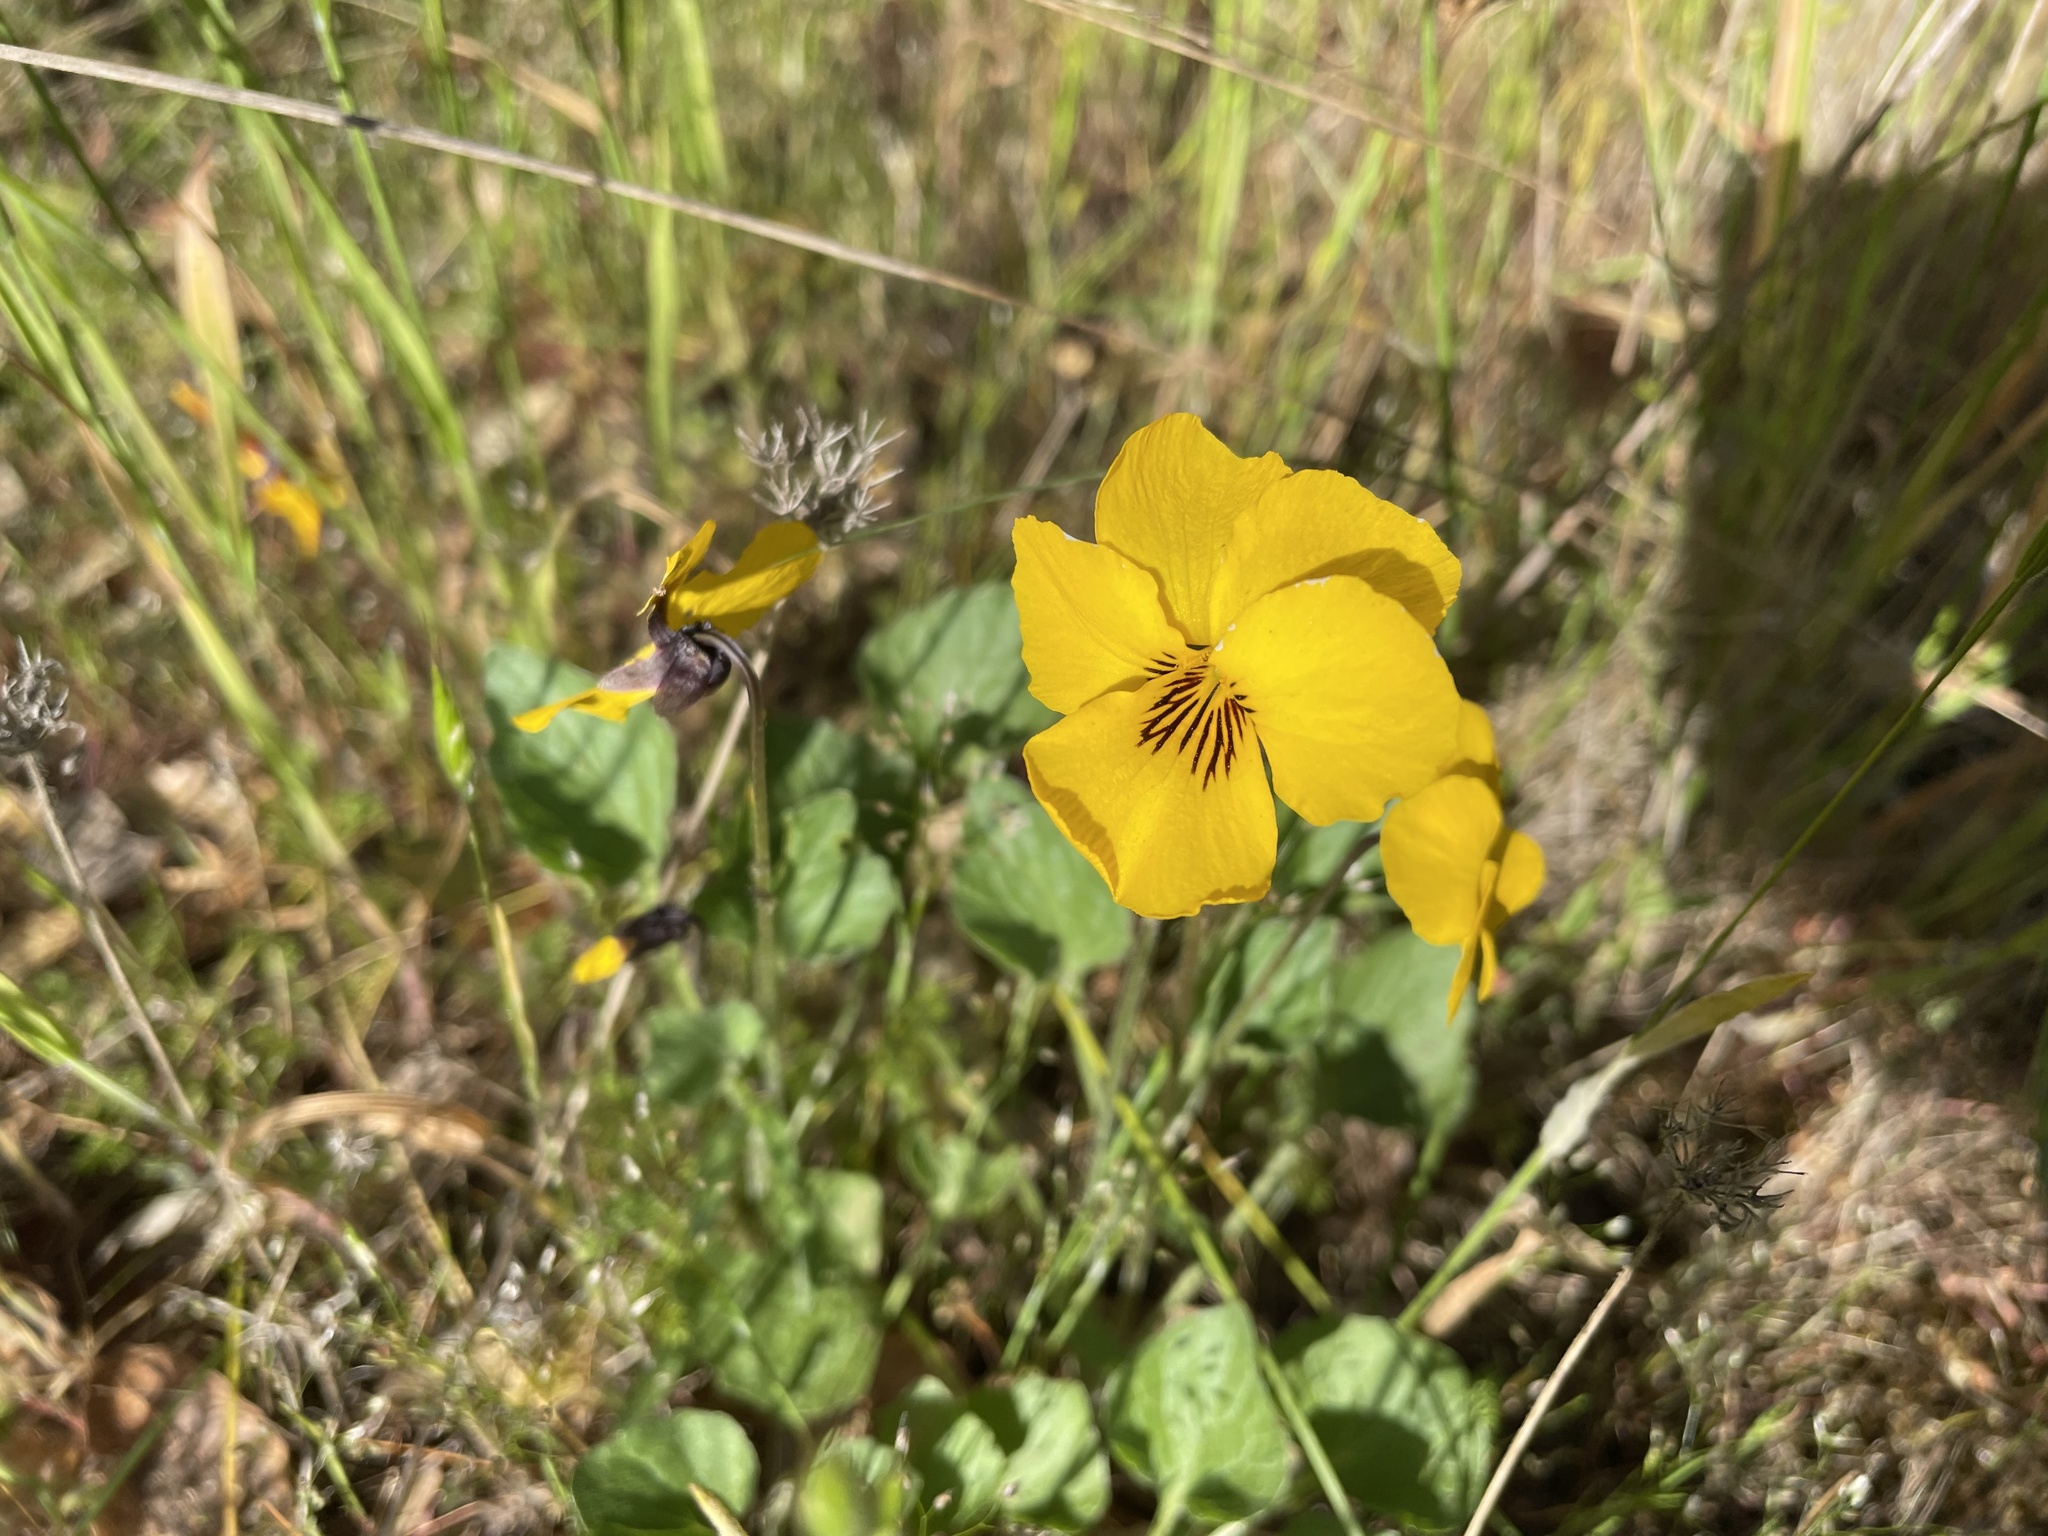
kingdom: Plantae
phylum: Tracheophyta
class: Magnoliopsida
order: Malpighiales
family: Violaceae
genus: Viola
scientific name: Viola pedunculata
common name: California golden violet
